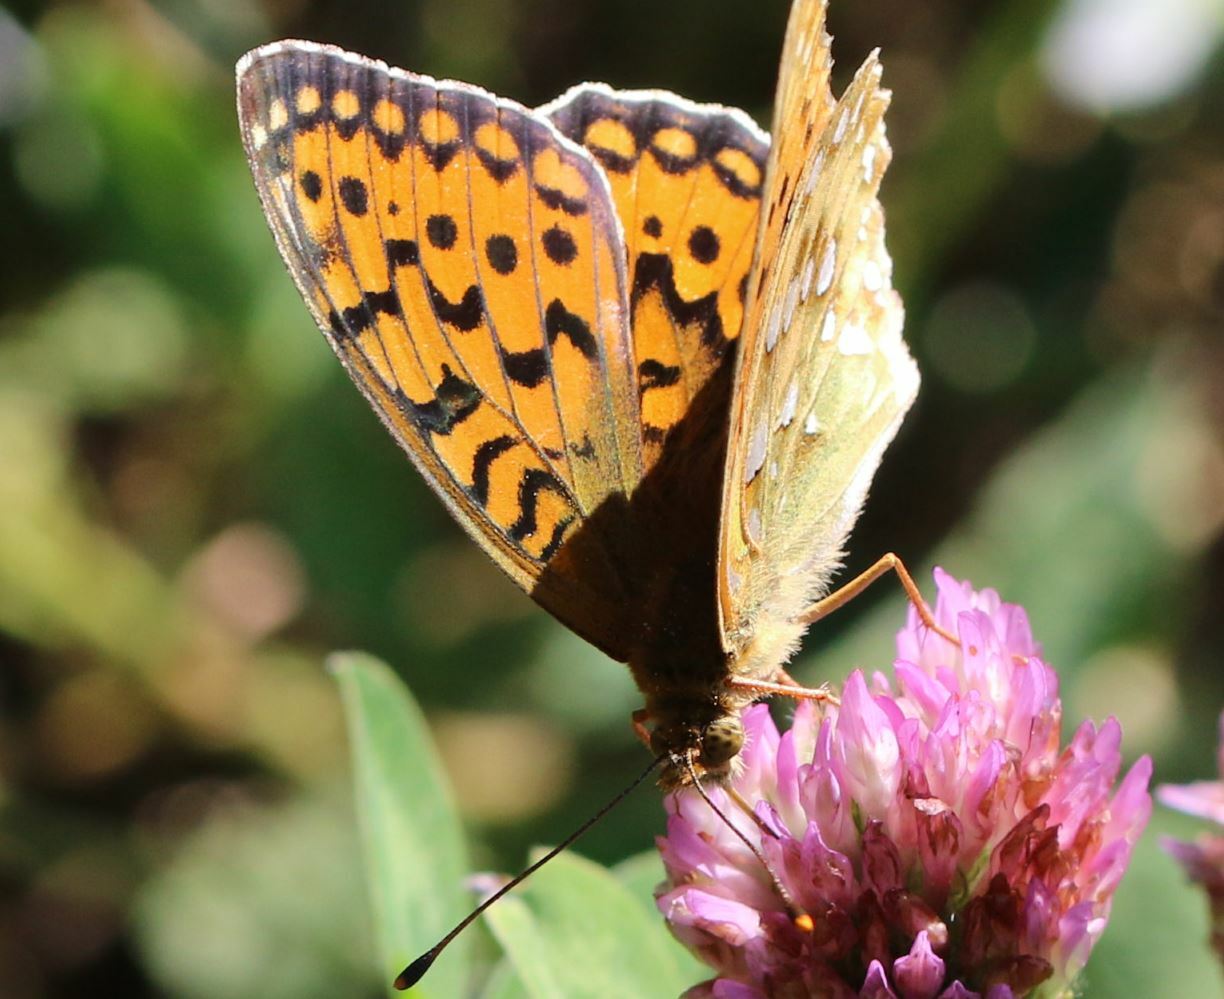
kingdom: Animalia
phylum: Arthropoda
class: Insecta
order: Lepidoptera
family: Nymphalidae
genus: Speyeria
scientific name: Speyeria aglaja
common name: Dark green fritillary
